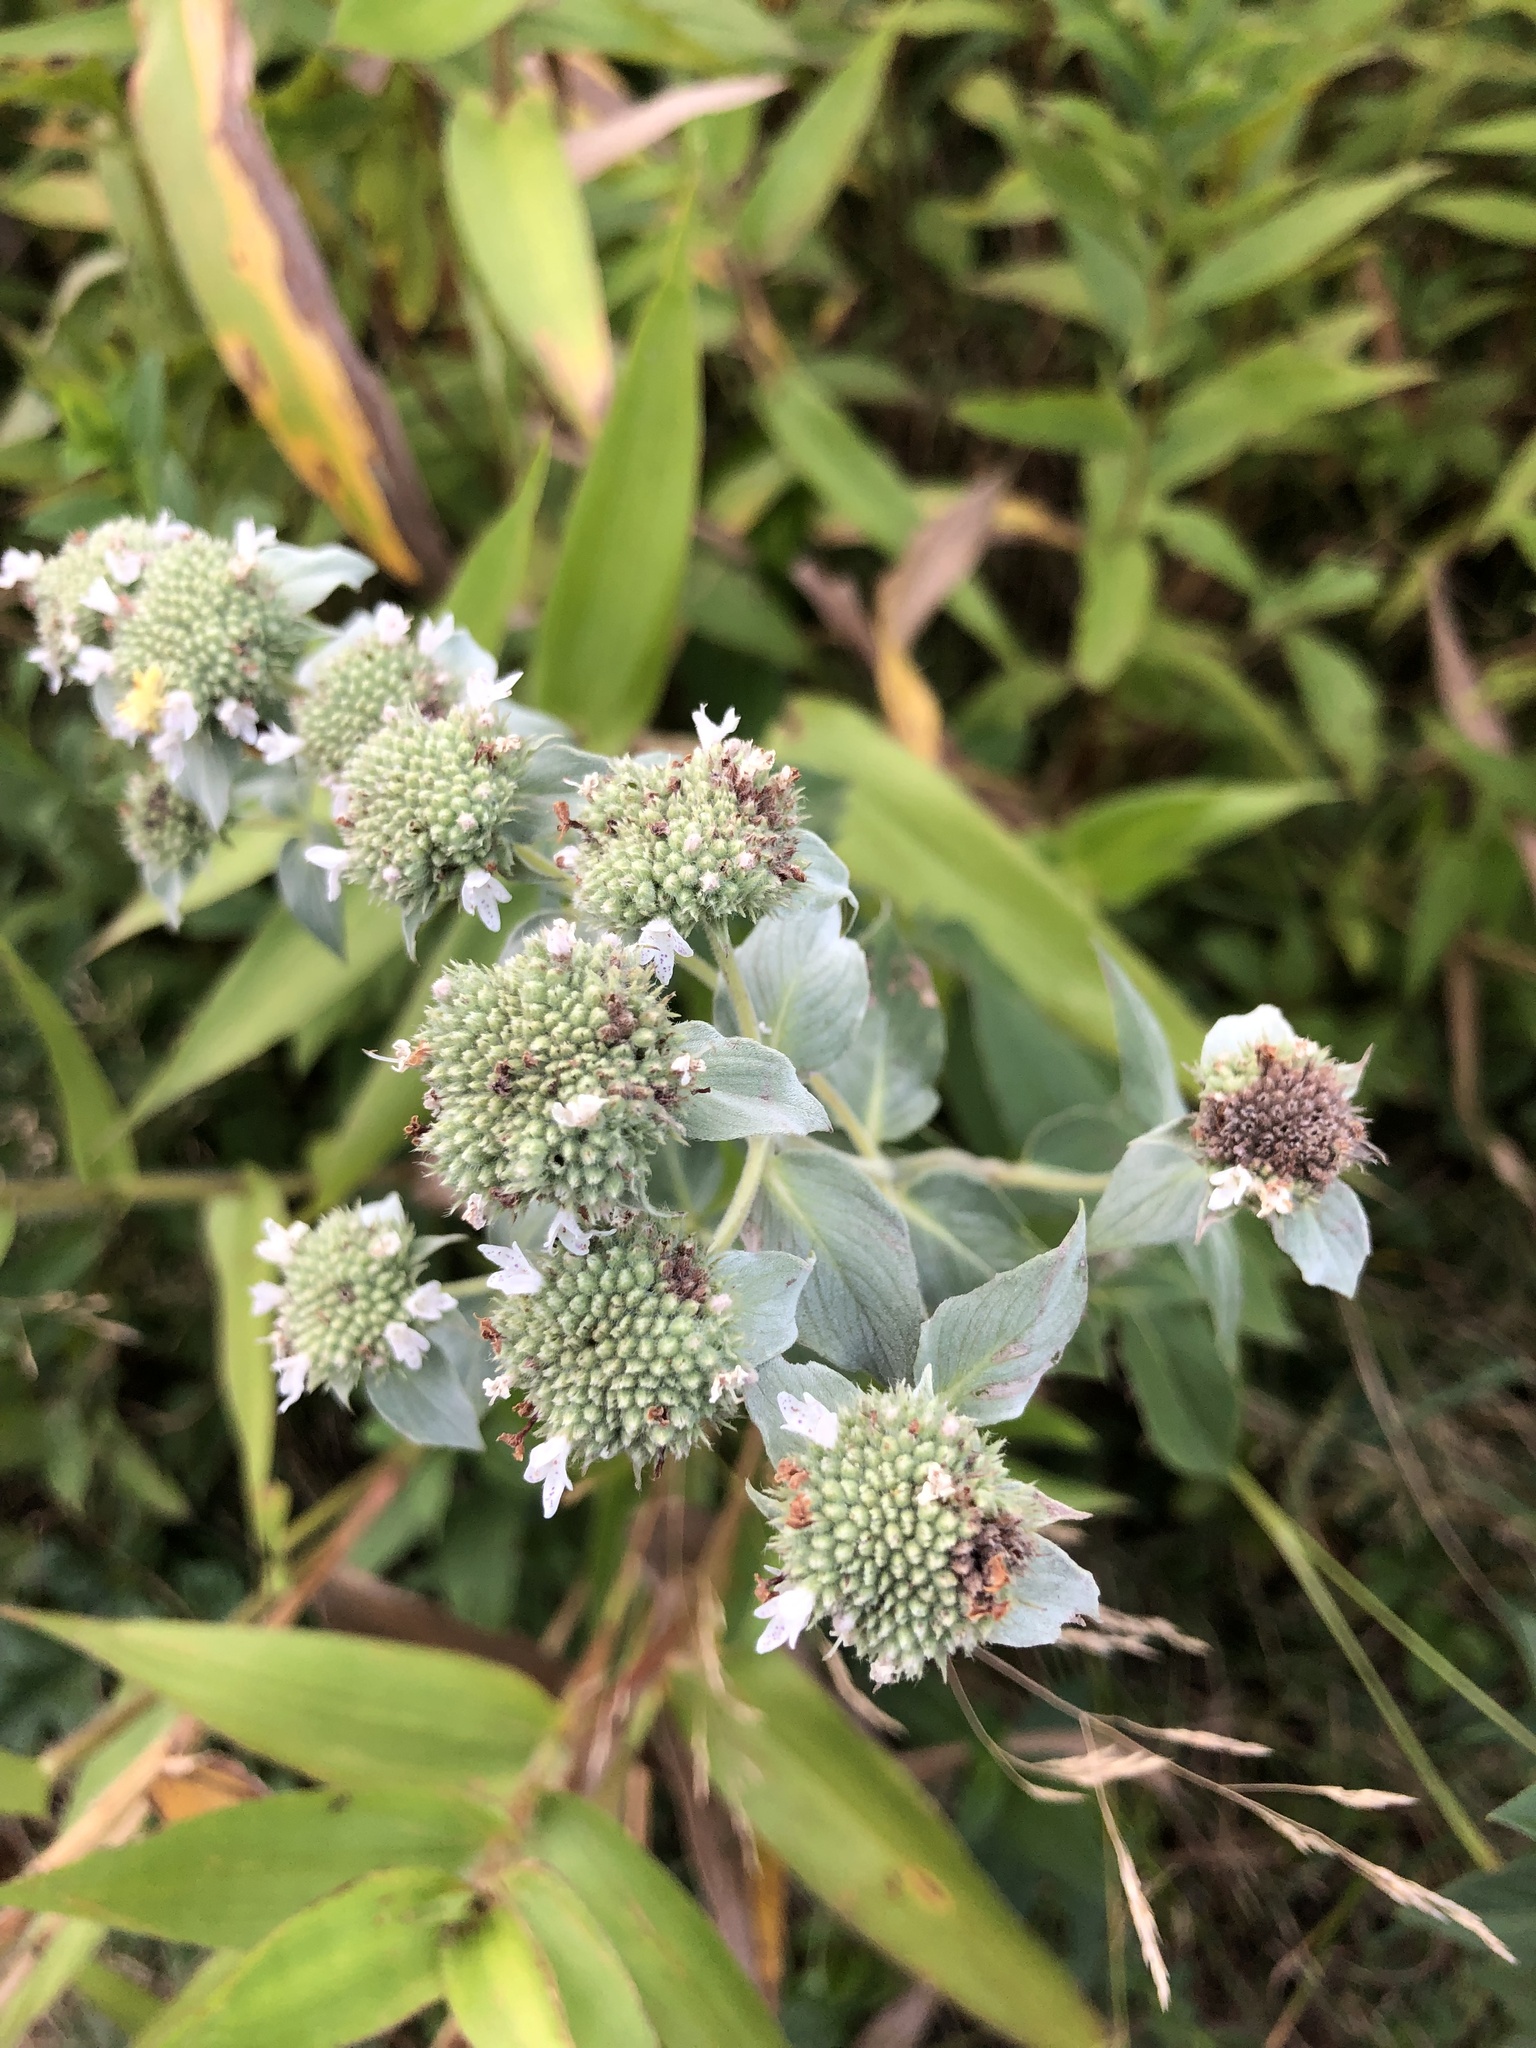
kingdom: Plantae
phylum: Tracheophyta
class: Magnoliopsida
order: Lamiales
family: Lamiaceae
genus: Pycnanthemum
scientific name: Pycnanthemum muticum
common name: Blunt mountain-mint
